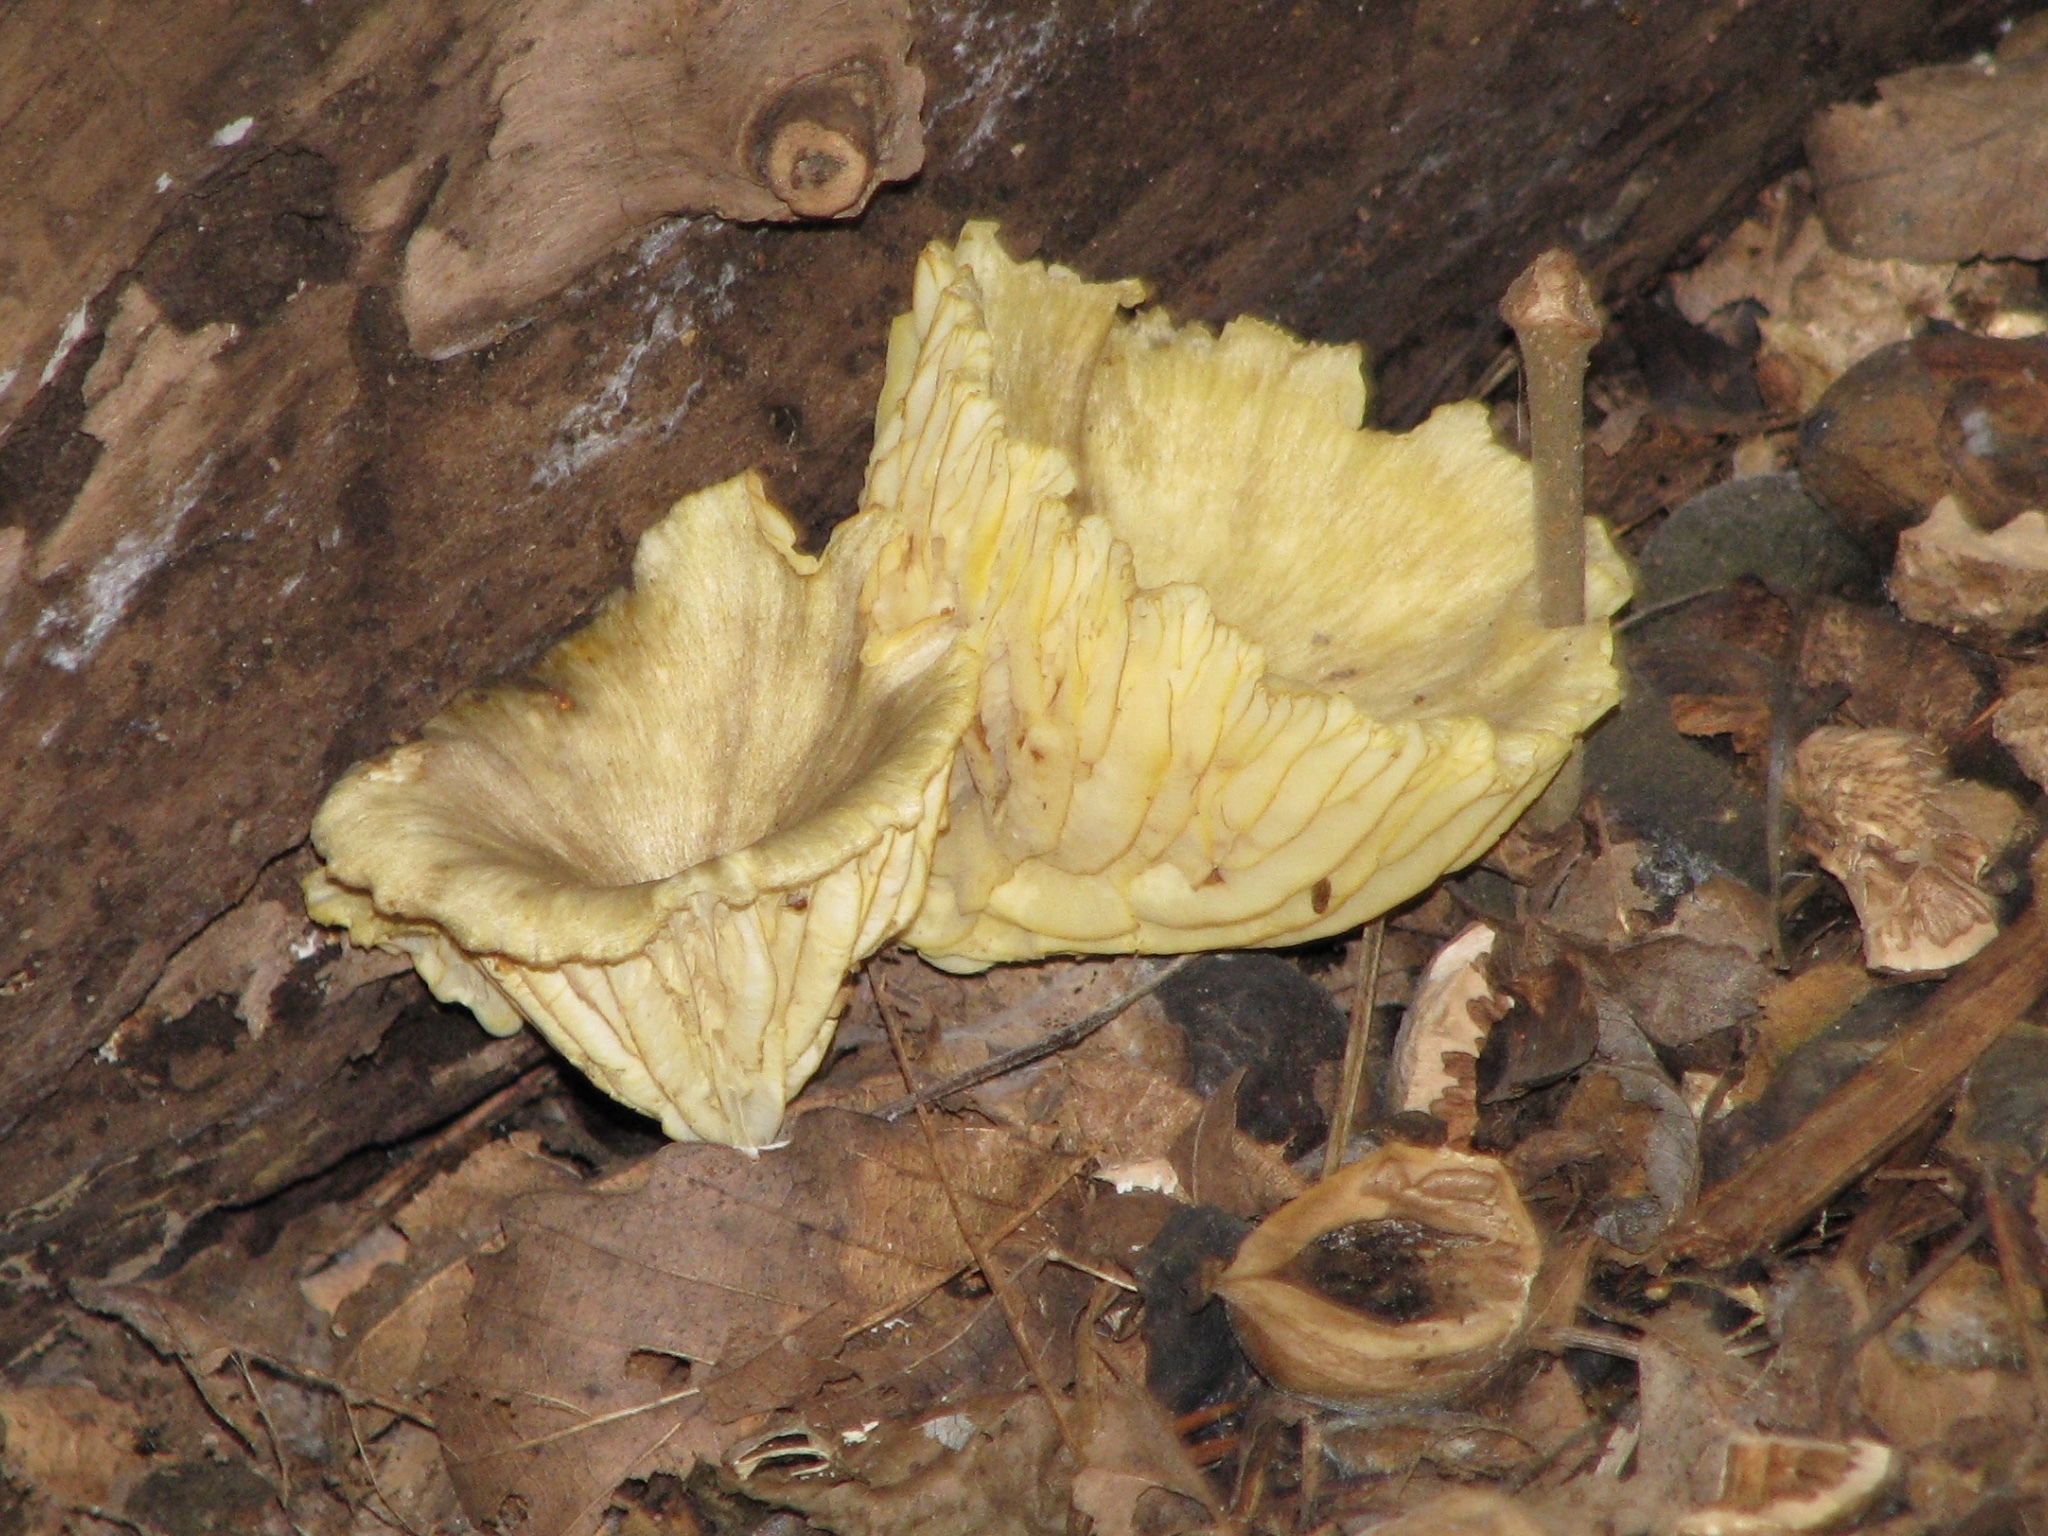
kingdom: Fungi
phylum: Basidiomycota
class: Agaricomycetes
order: Agaricales
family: Marasmiaceae
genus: Gerronema
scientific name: Gerronema strombodes
